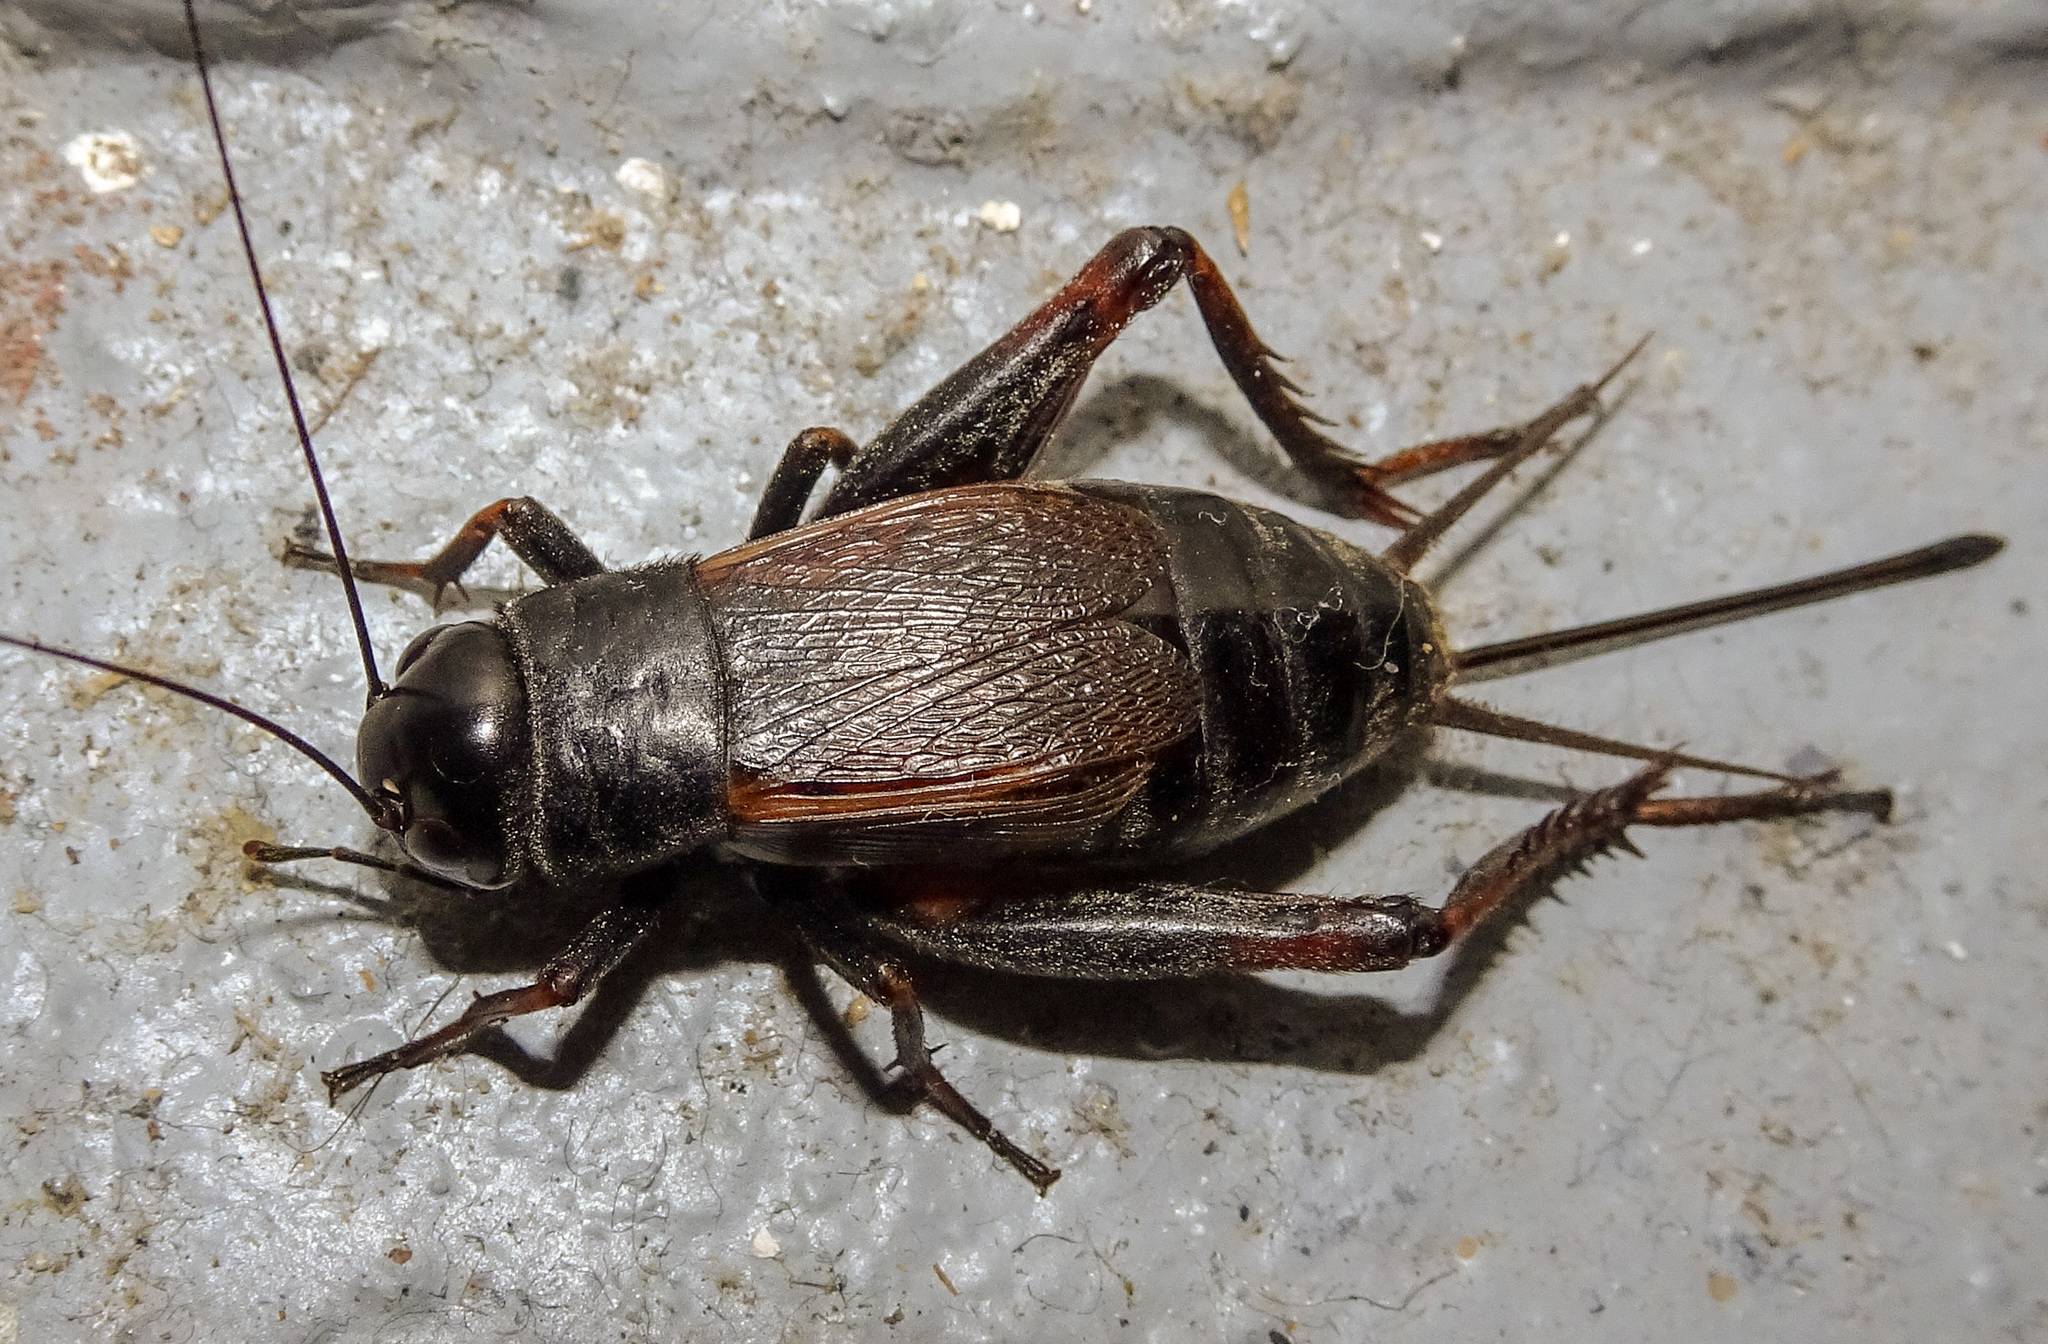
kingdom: Animalia
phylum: Arthropoda
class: Insecta
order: Orthoptera
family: Gryllidae
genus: Gryllus
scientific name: Gryllus pennsylvanicus
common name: Fall field cricket
